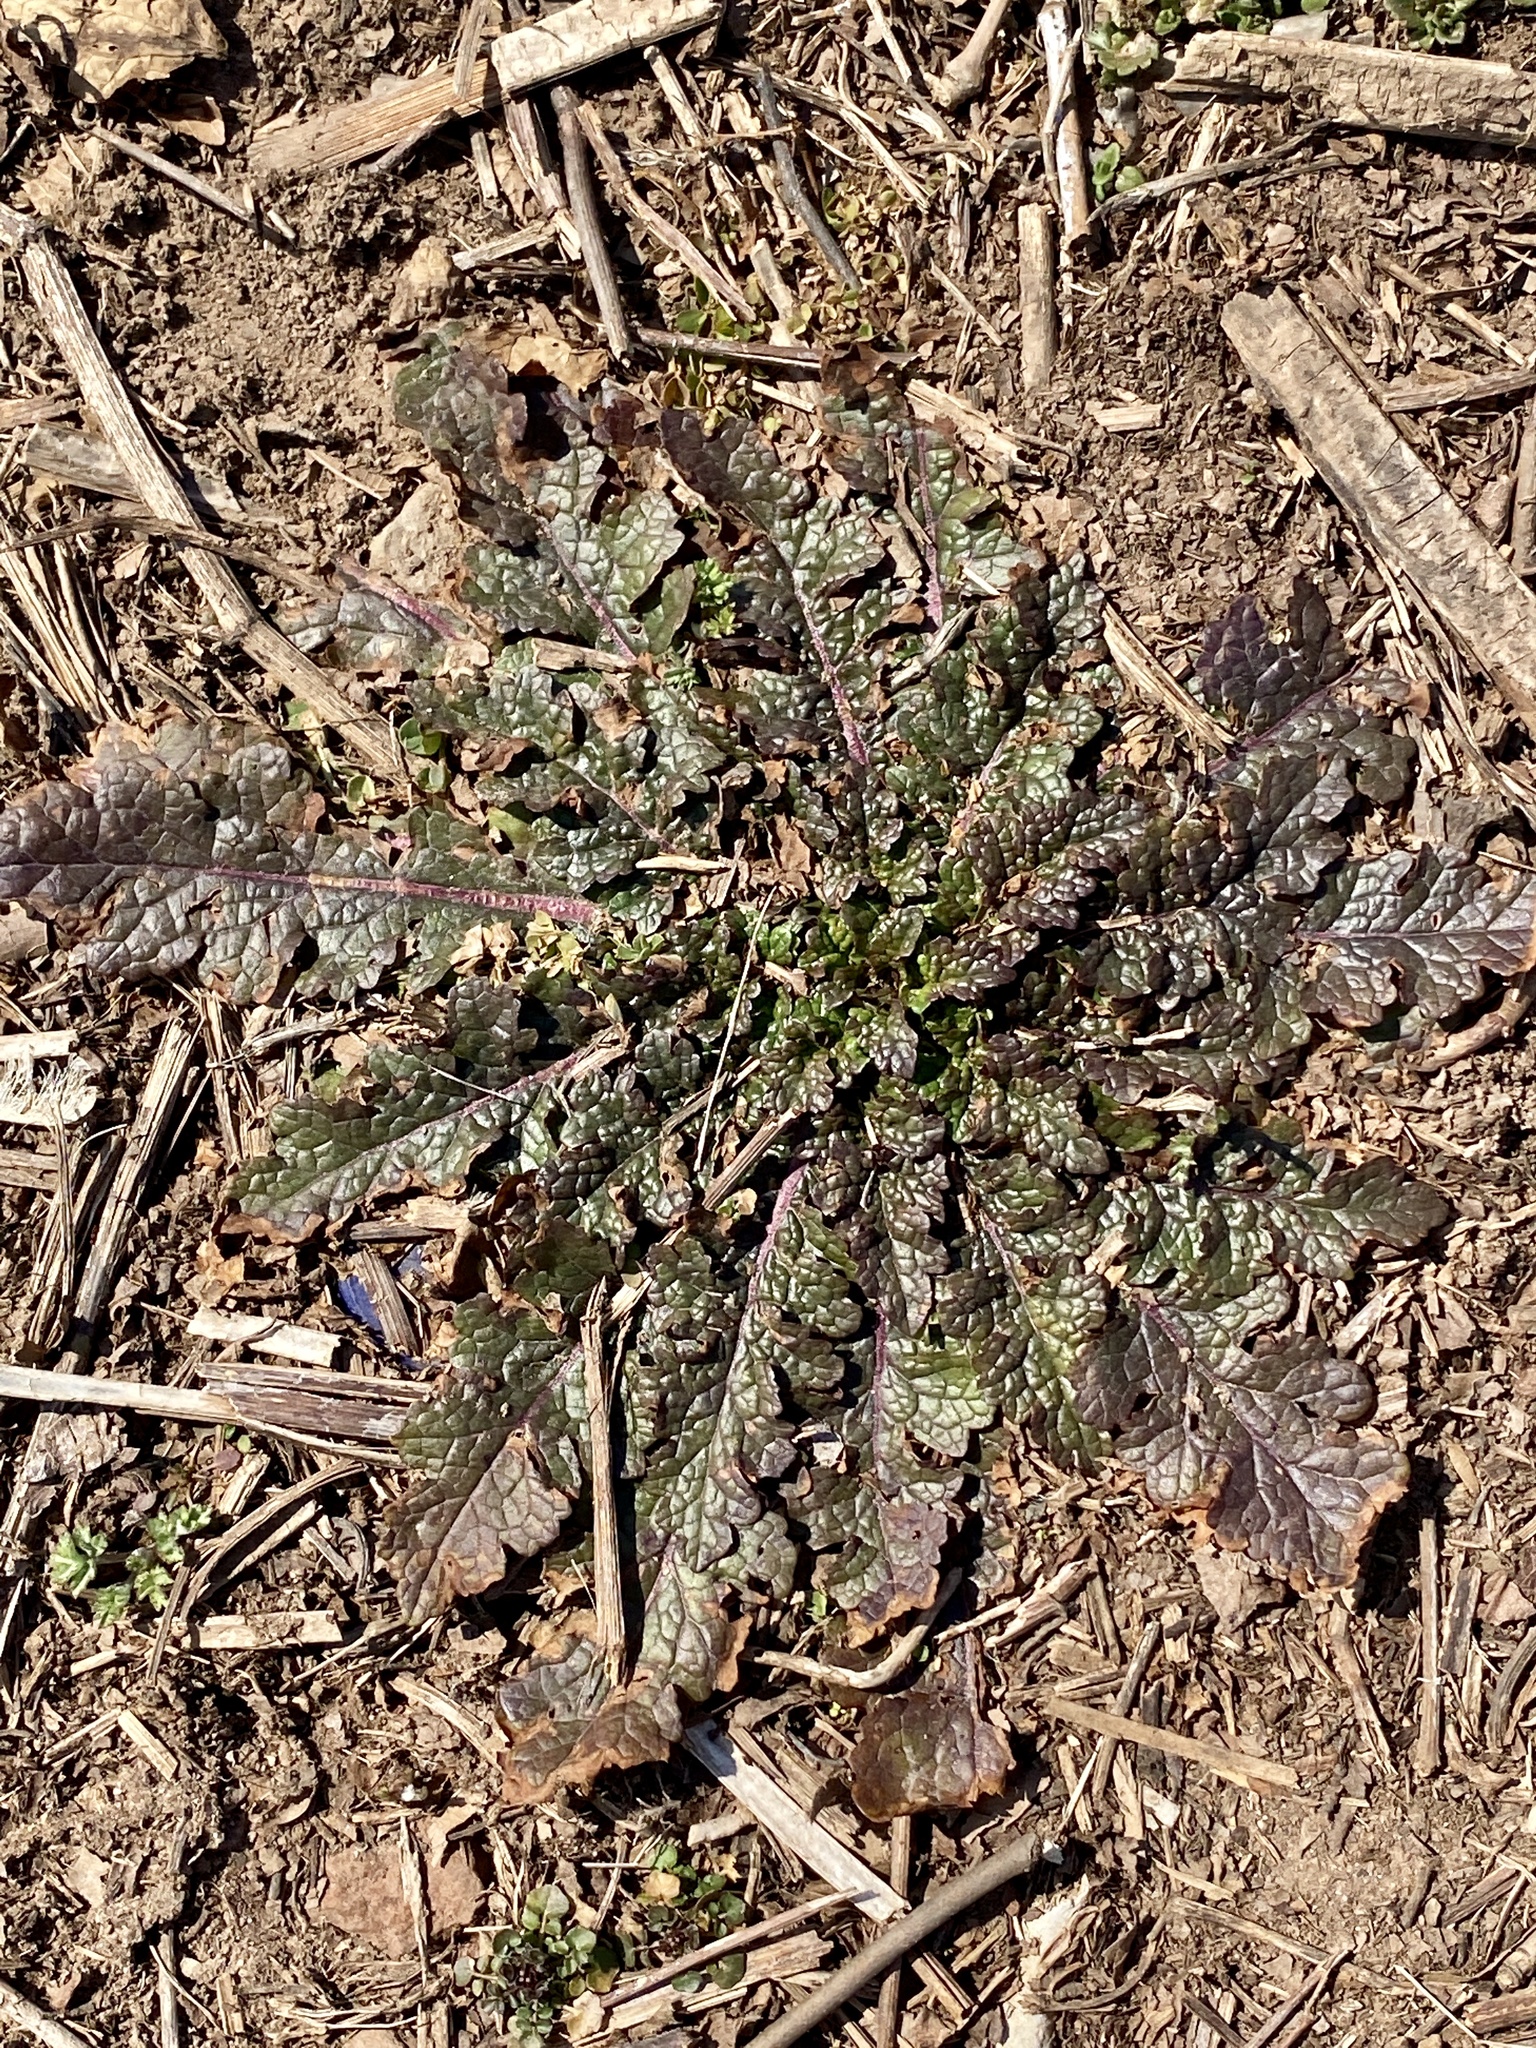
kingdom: Plantae
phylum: Tracheophyta
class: Magnoliopsida
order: Lamiales
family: Scrophulariaceae
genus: Verbascum
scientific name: Verbascum blattaria
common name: Moth mullein
